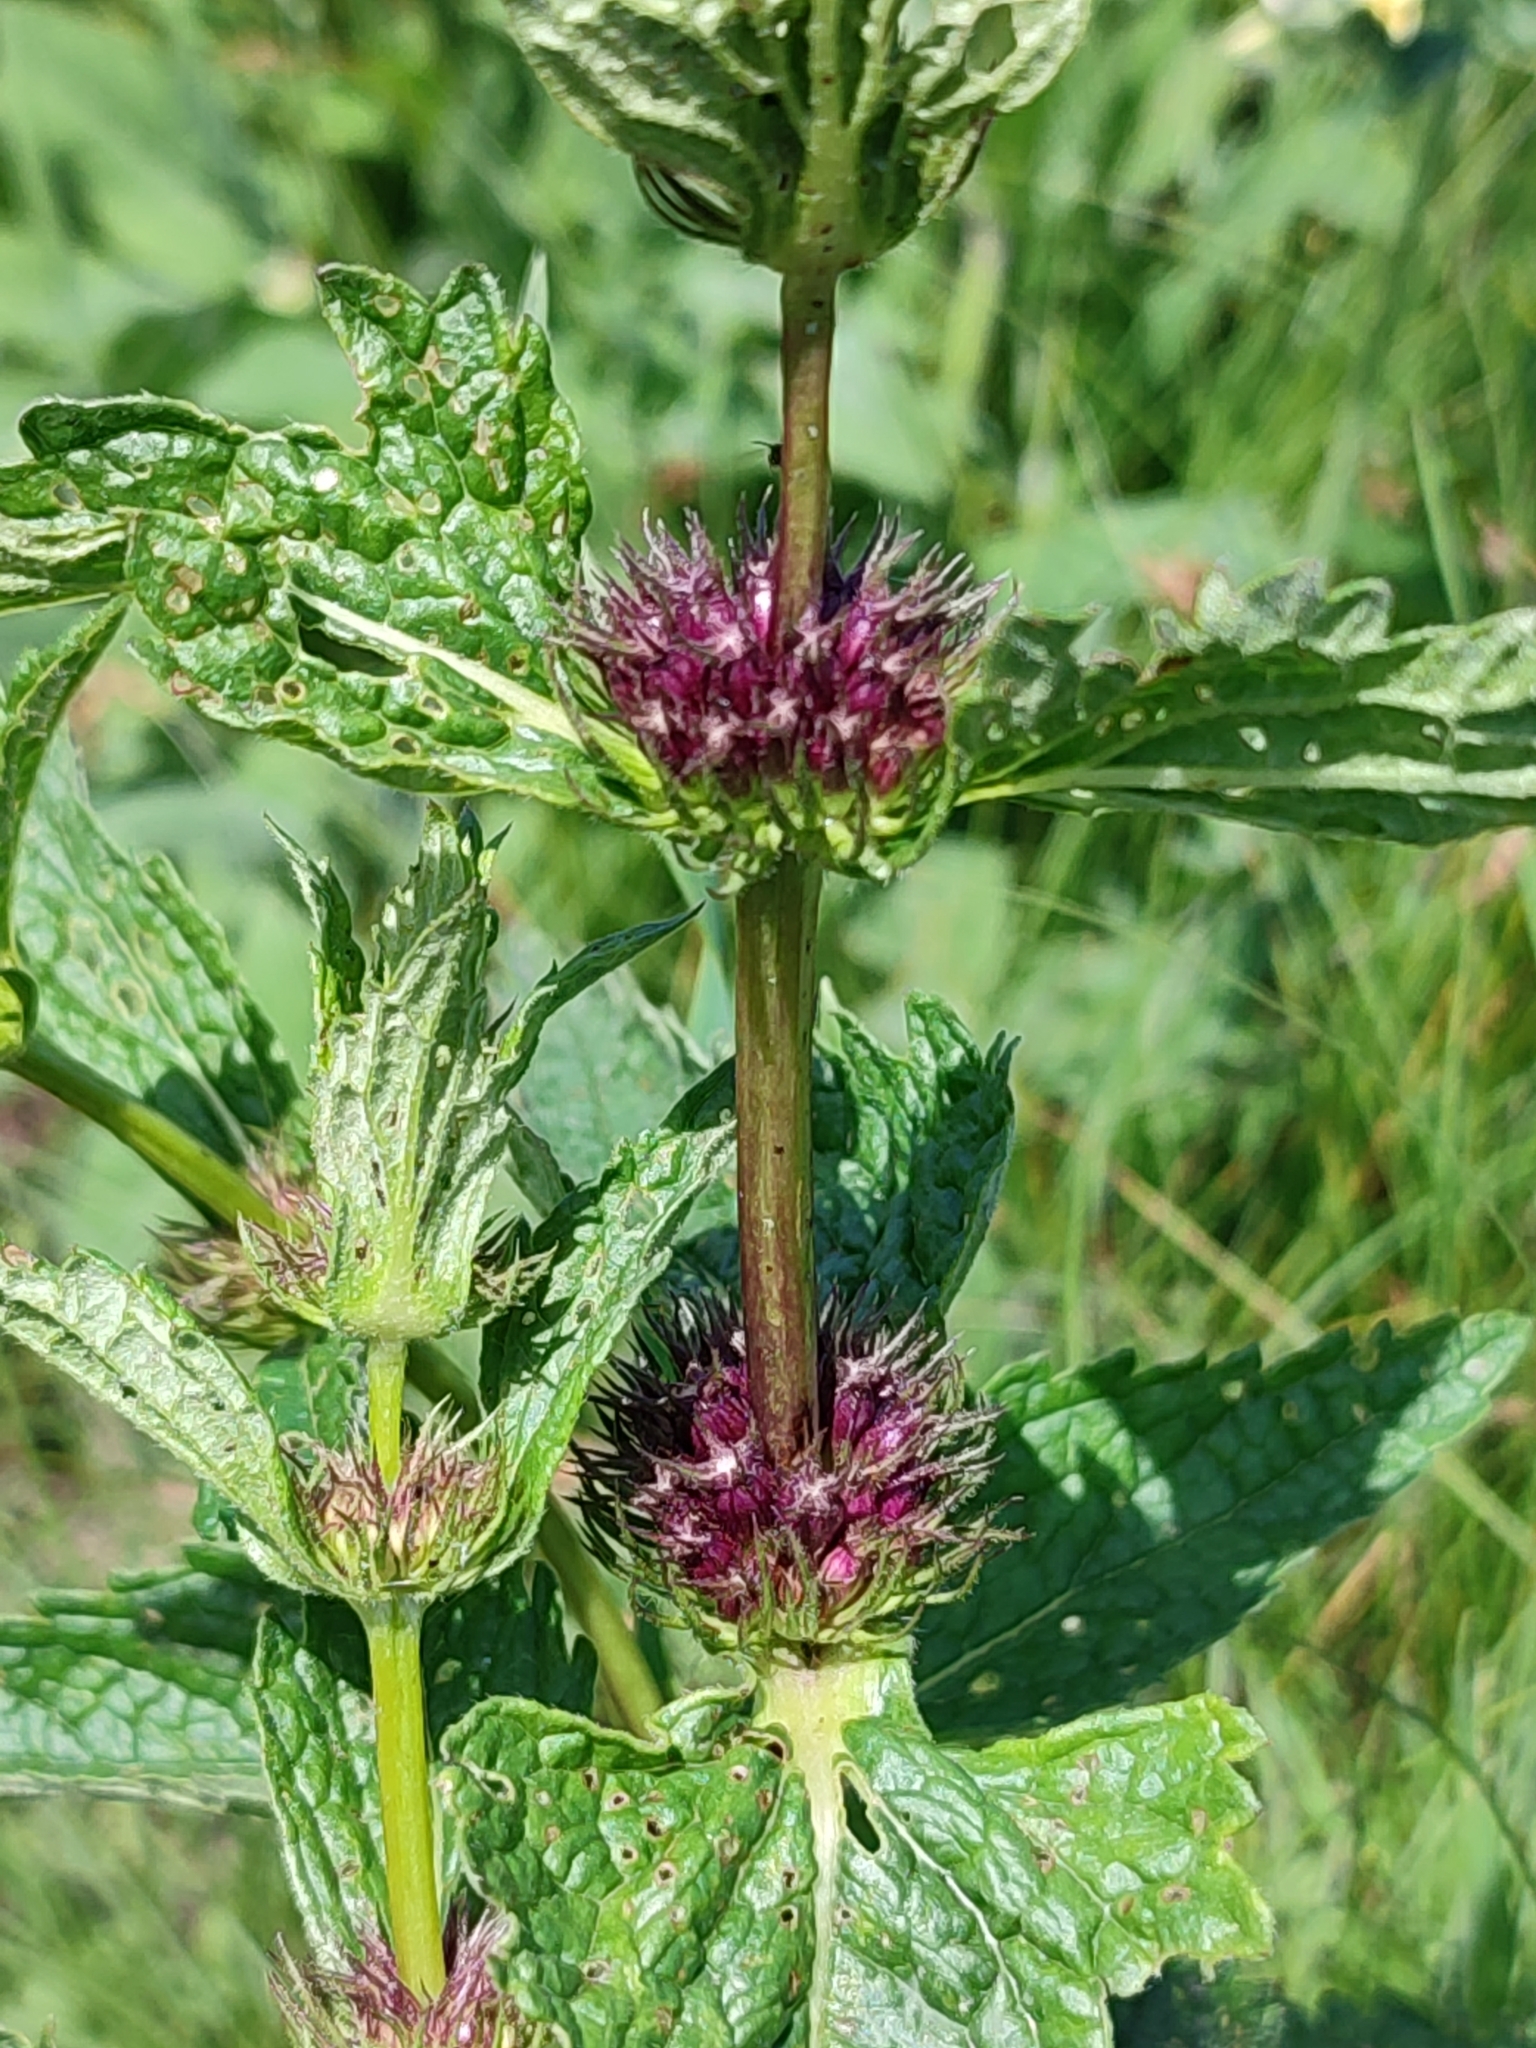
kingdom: Plantae
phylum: Tracheophyta
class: Magnoliopsida
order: Lamiales
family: Lamiaceae
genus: Phlomoides
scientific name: Phlomoides tuberosa
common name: Tuberous jerusalem sage
